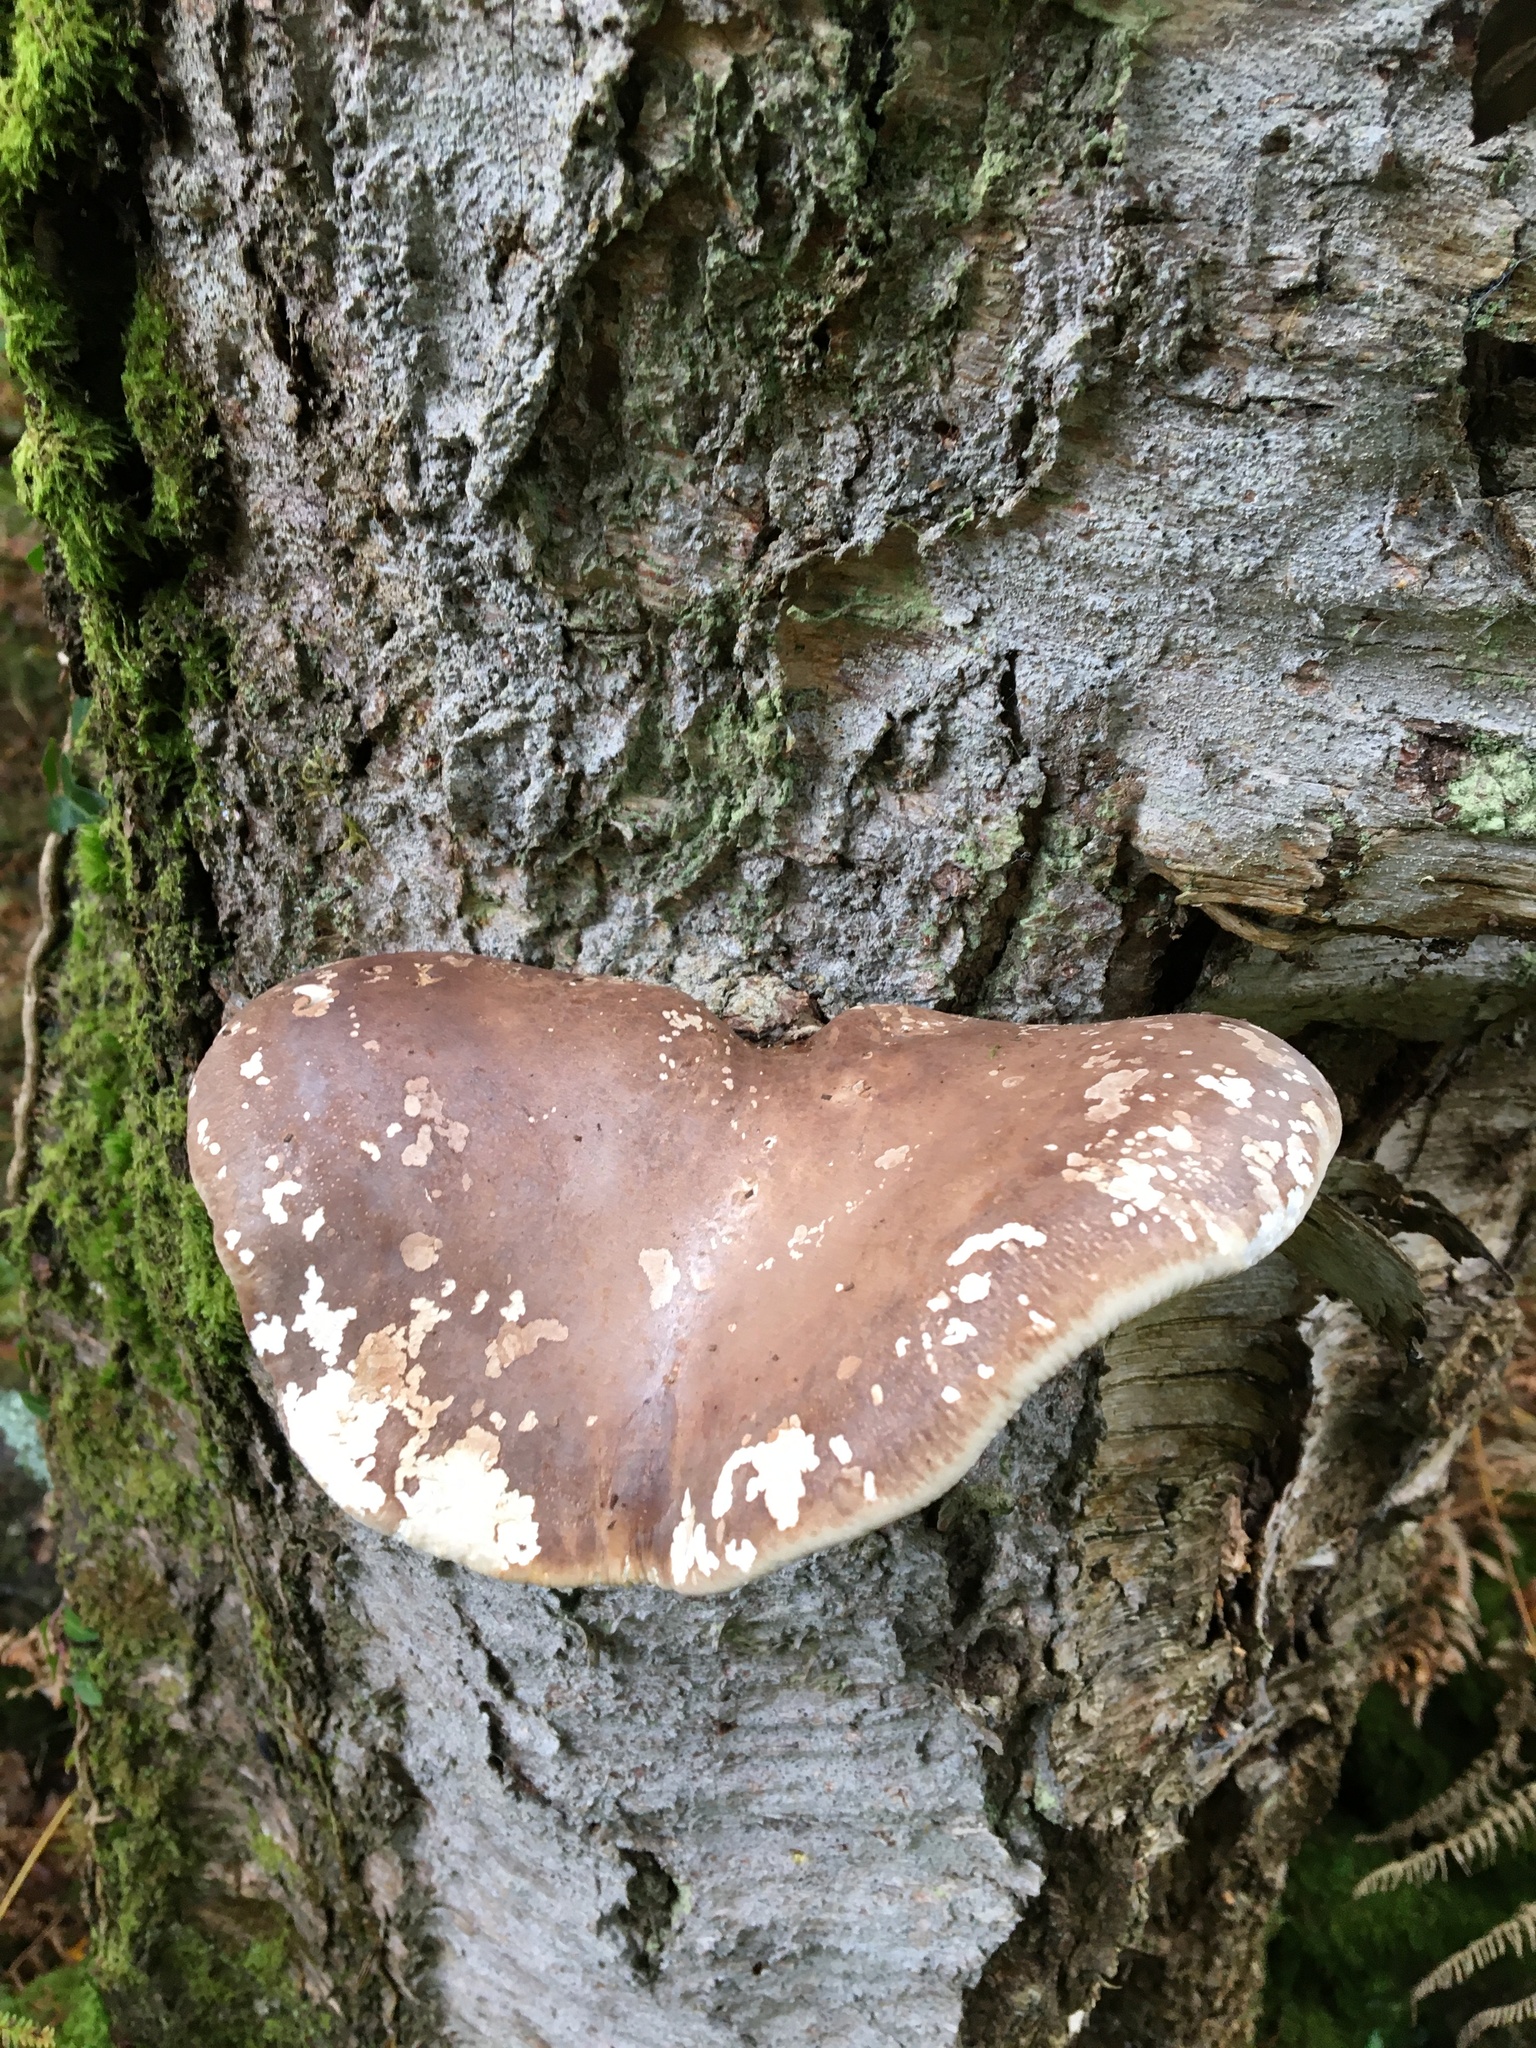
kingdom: Fungi
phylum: Basidiomycota
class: Agaricomycetes
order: Polyporales
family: Fomitopsidaceae
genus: Fomitopsis
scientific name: Fomitopsis betulina
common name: Birch polypore
